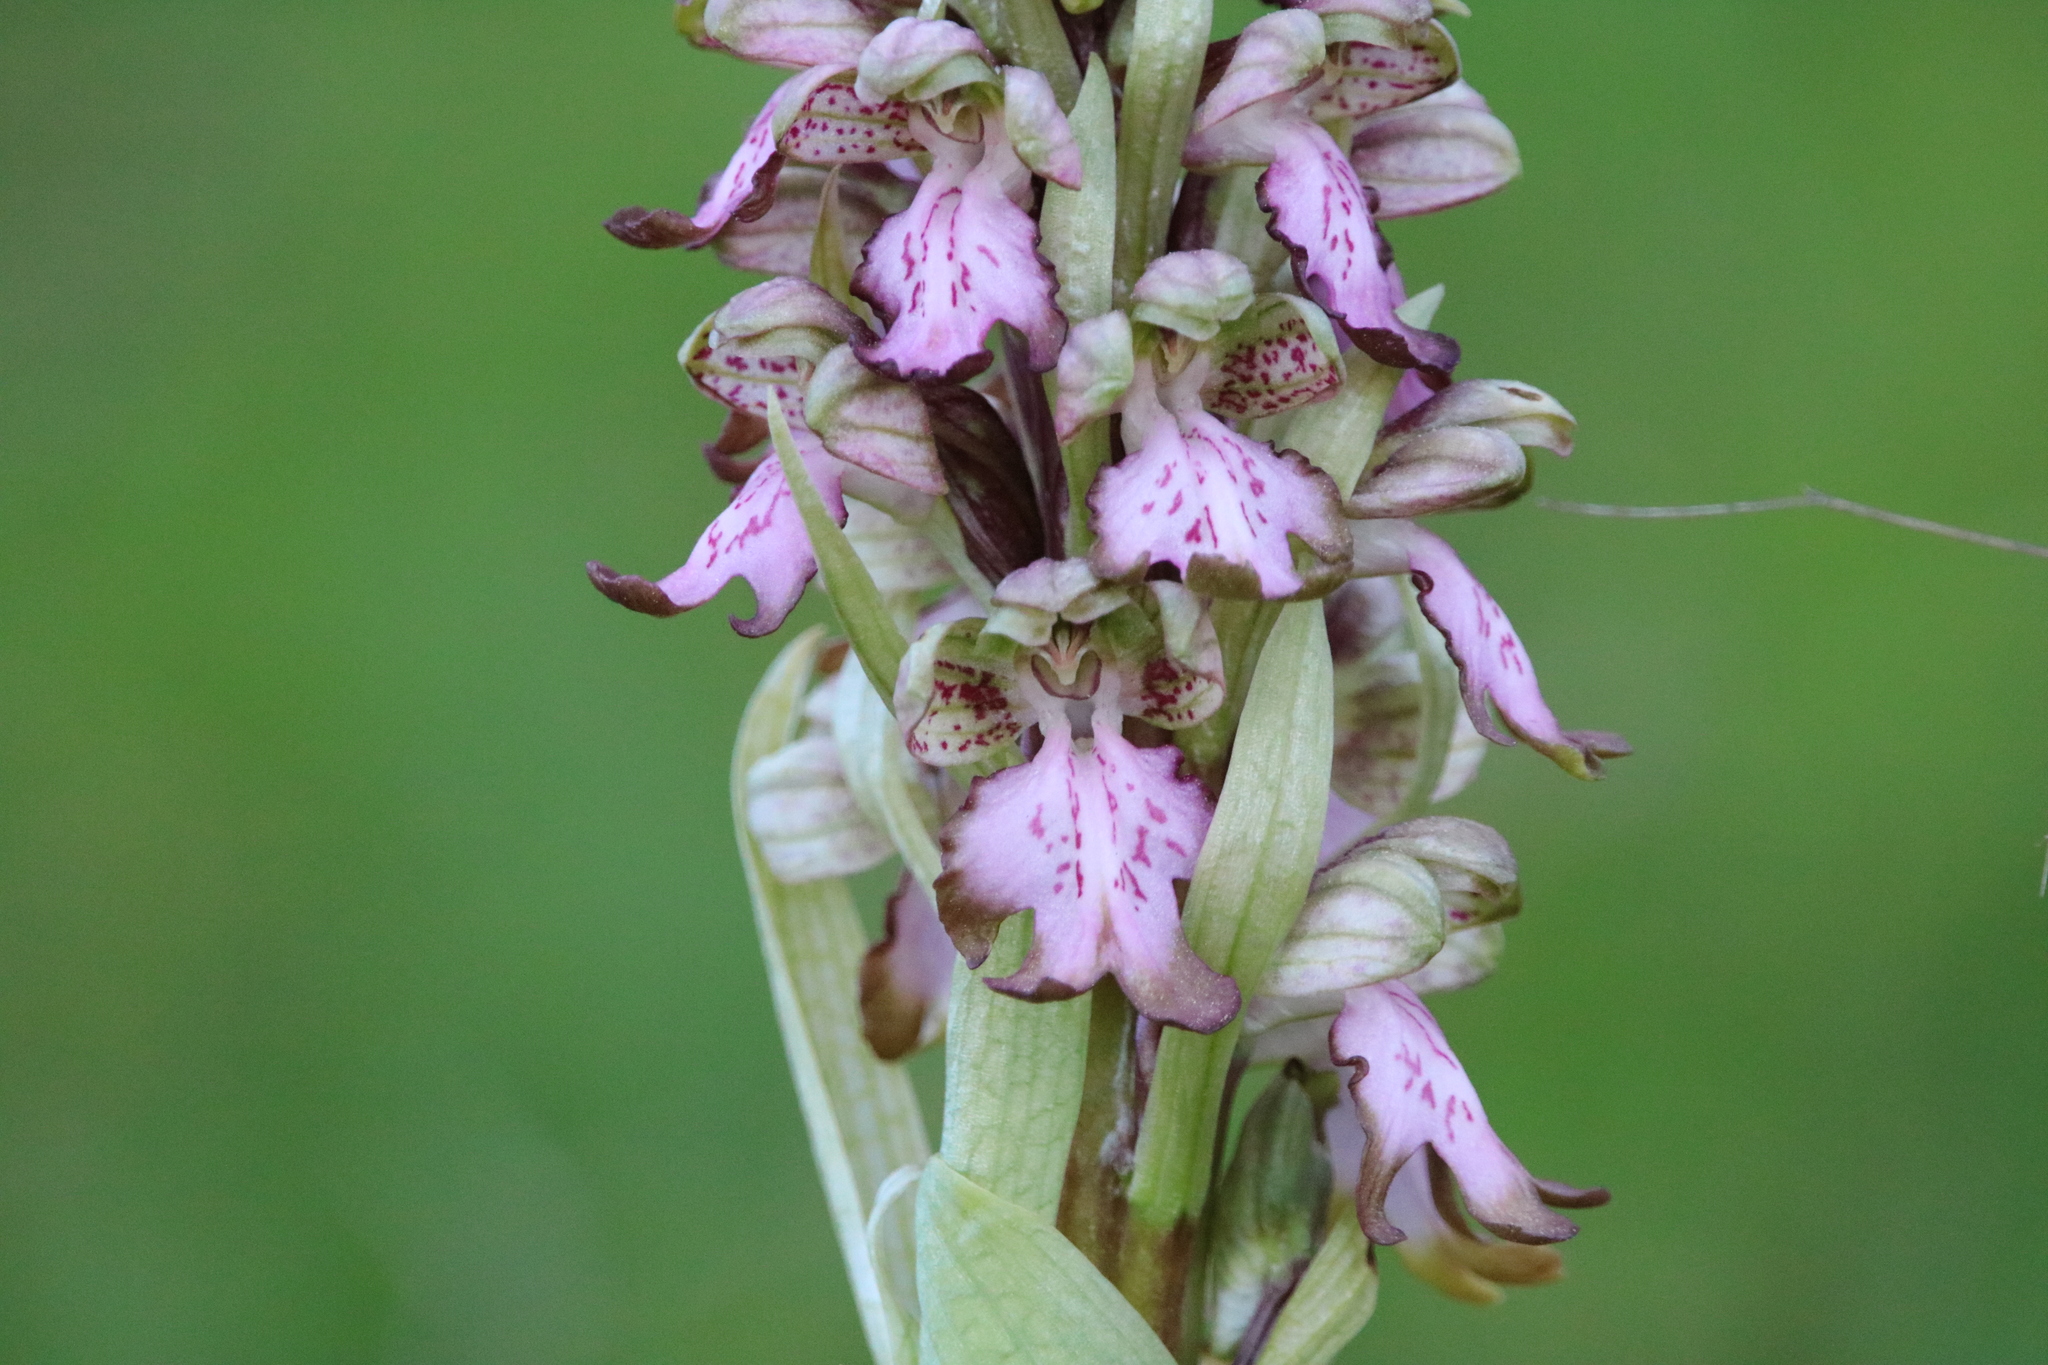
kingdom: Plantae
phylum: Tracheophyta
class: Liliopsida
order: Asparagales
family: Orchidaceae
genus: Himantoglossum
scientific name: Himantoglossum robertianum
